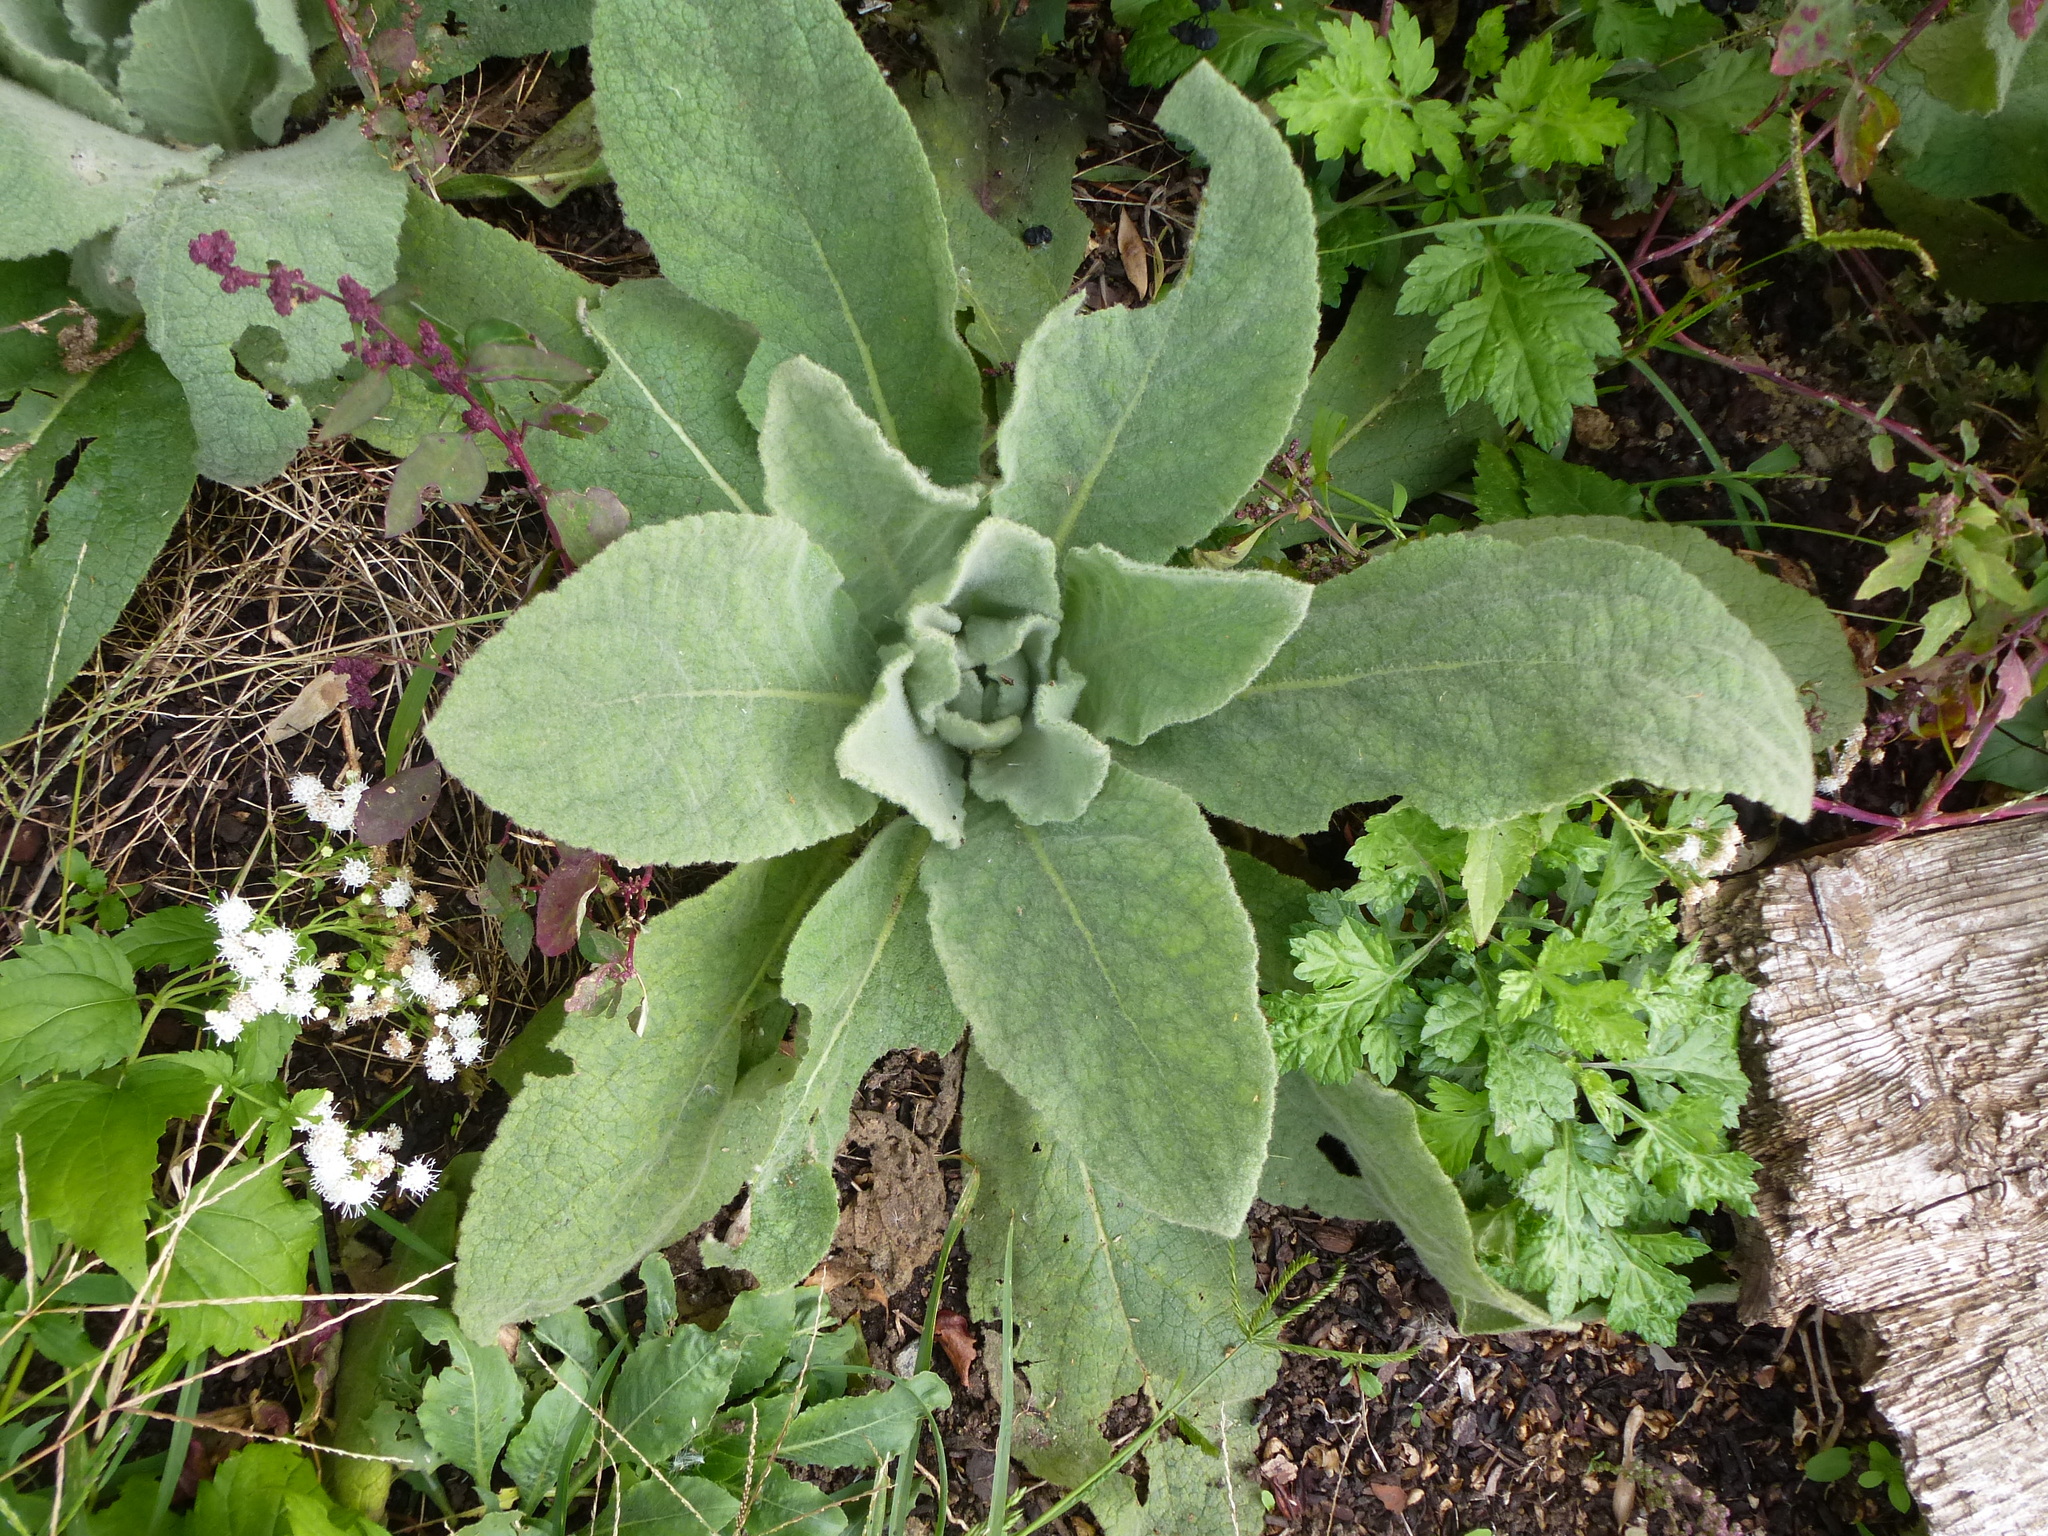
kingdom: Plantae
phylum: Tracheophyta
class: Magnoliopsida
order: Lamiales
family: Scrophulariaceae
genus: Verbascum
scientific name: Verbascum thapsus
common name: Common mullein
